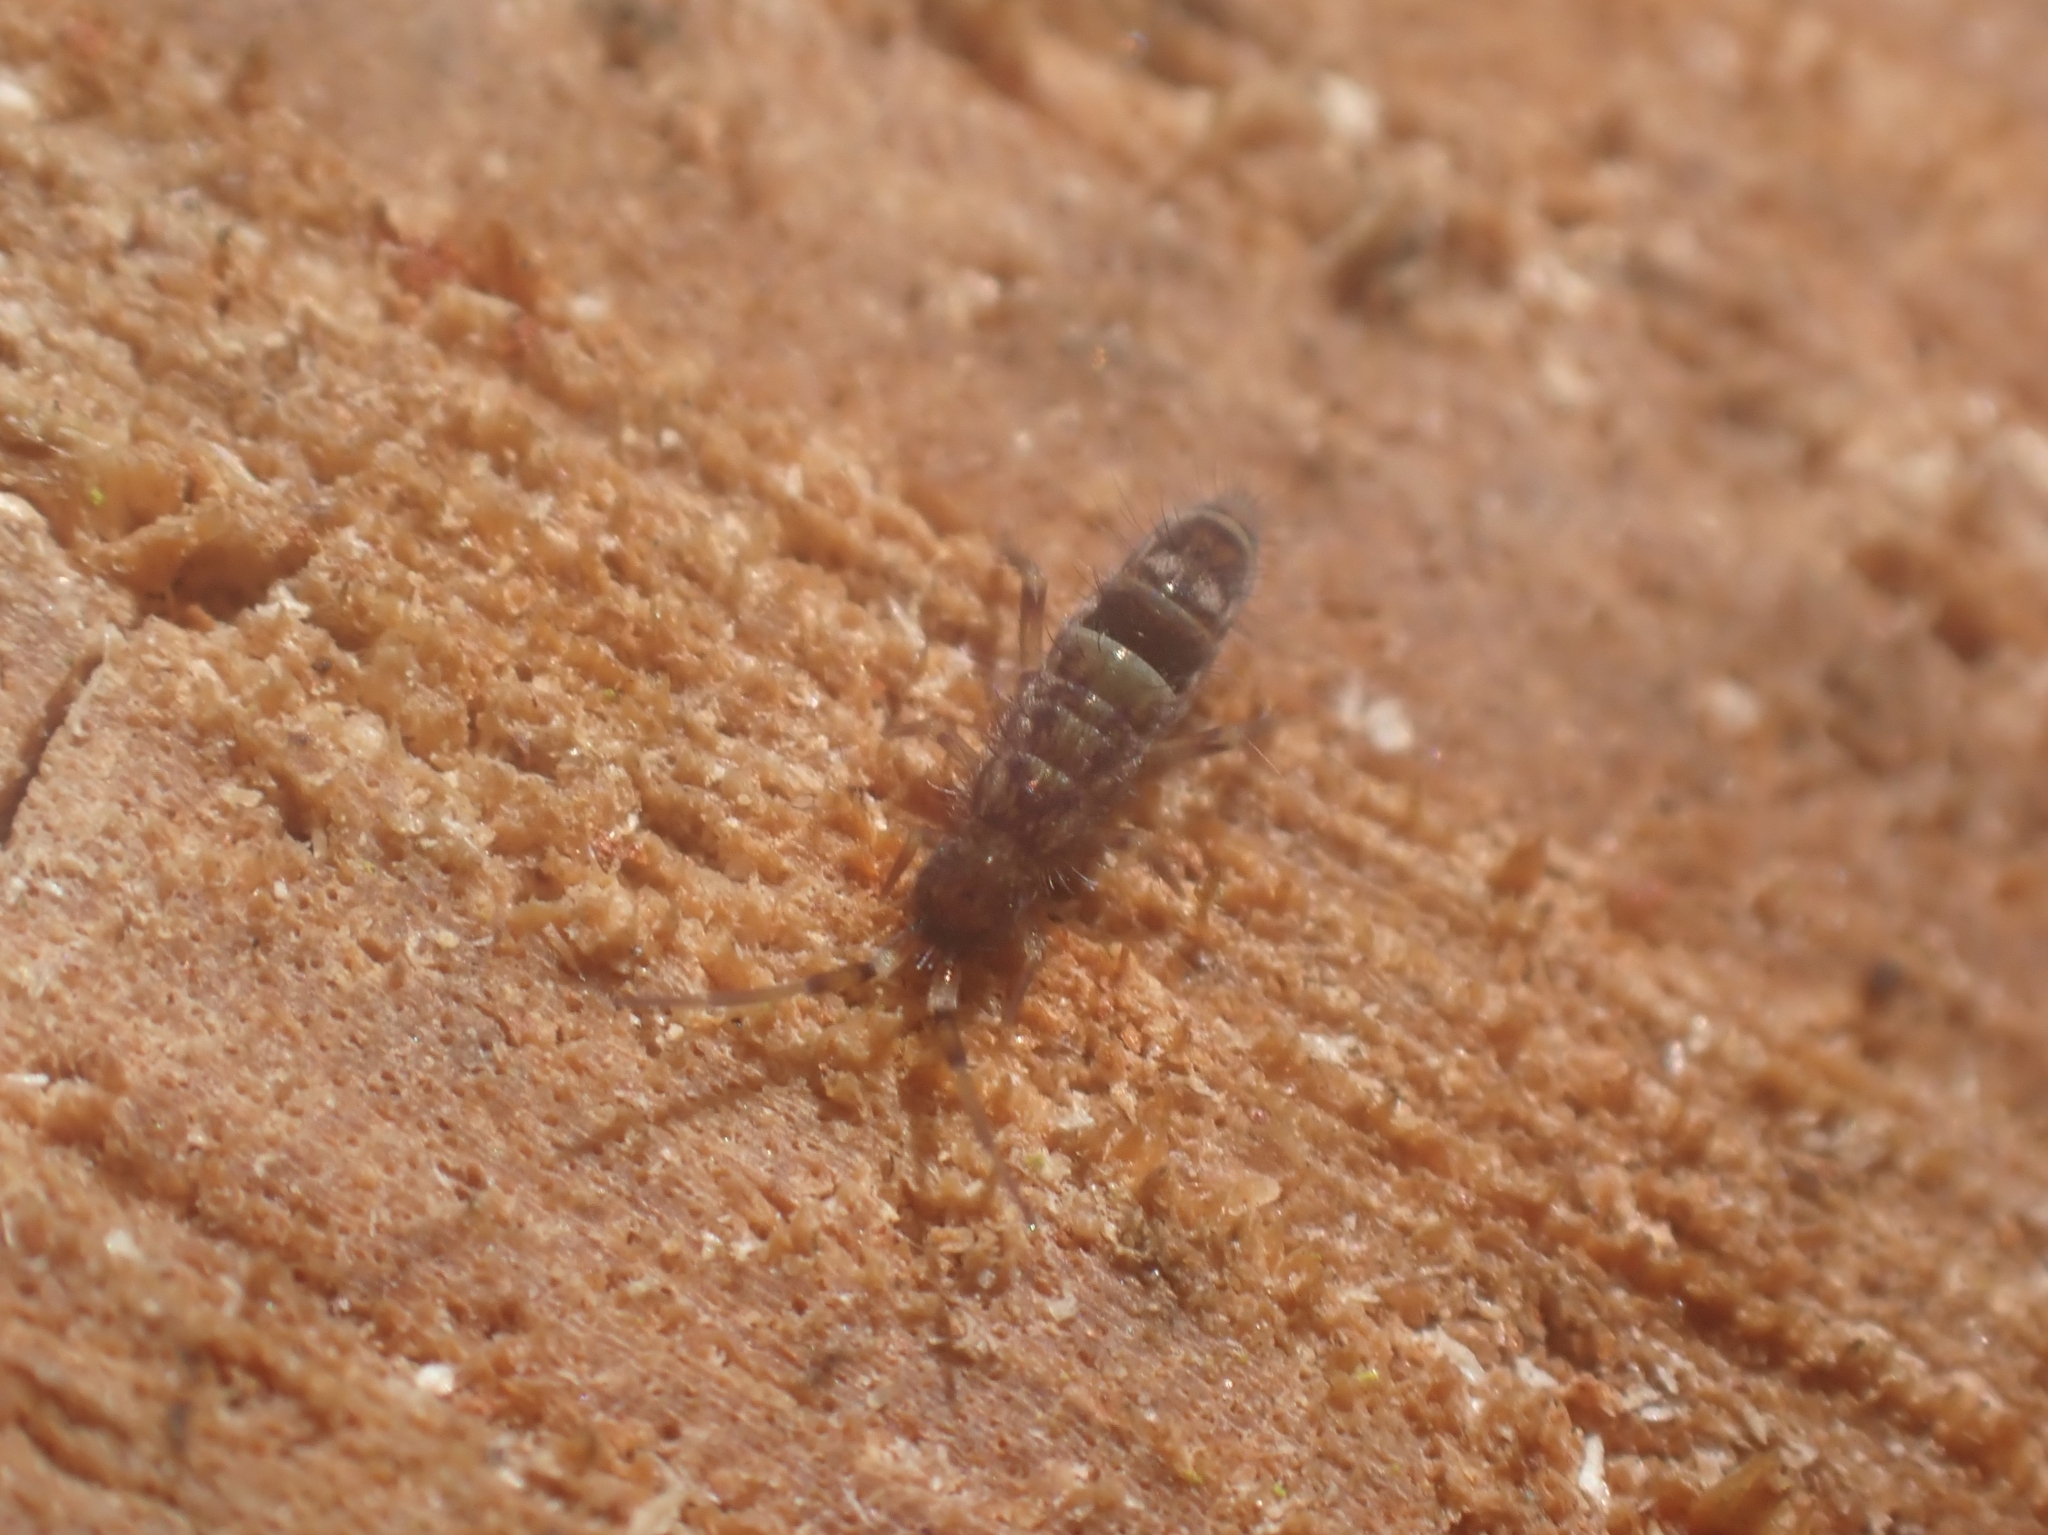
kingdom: Animalia
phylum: Arthropoda
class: Collembola
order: Entomobryomorpha
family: Orchesellidae
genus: Orchesella
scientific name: Orchesella cincta
